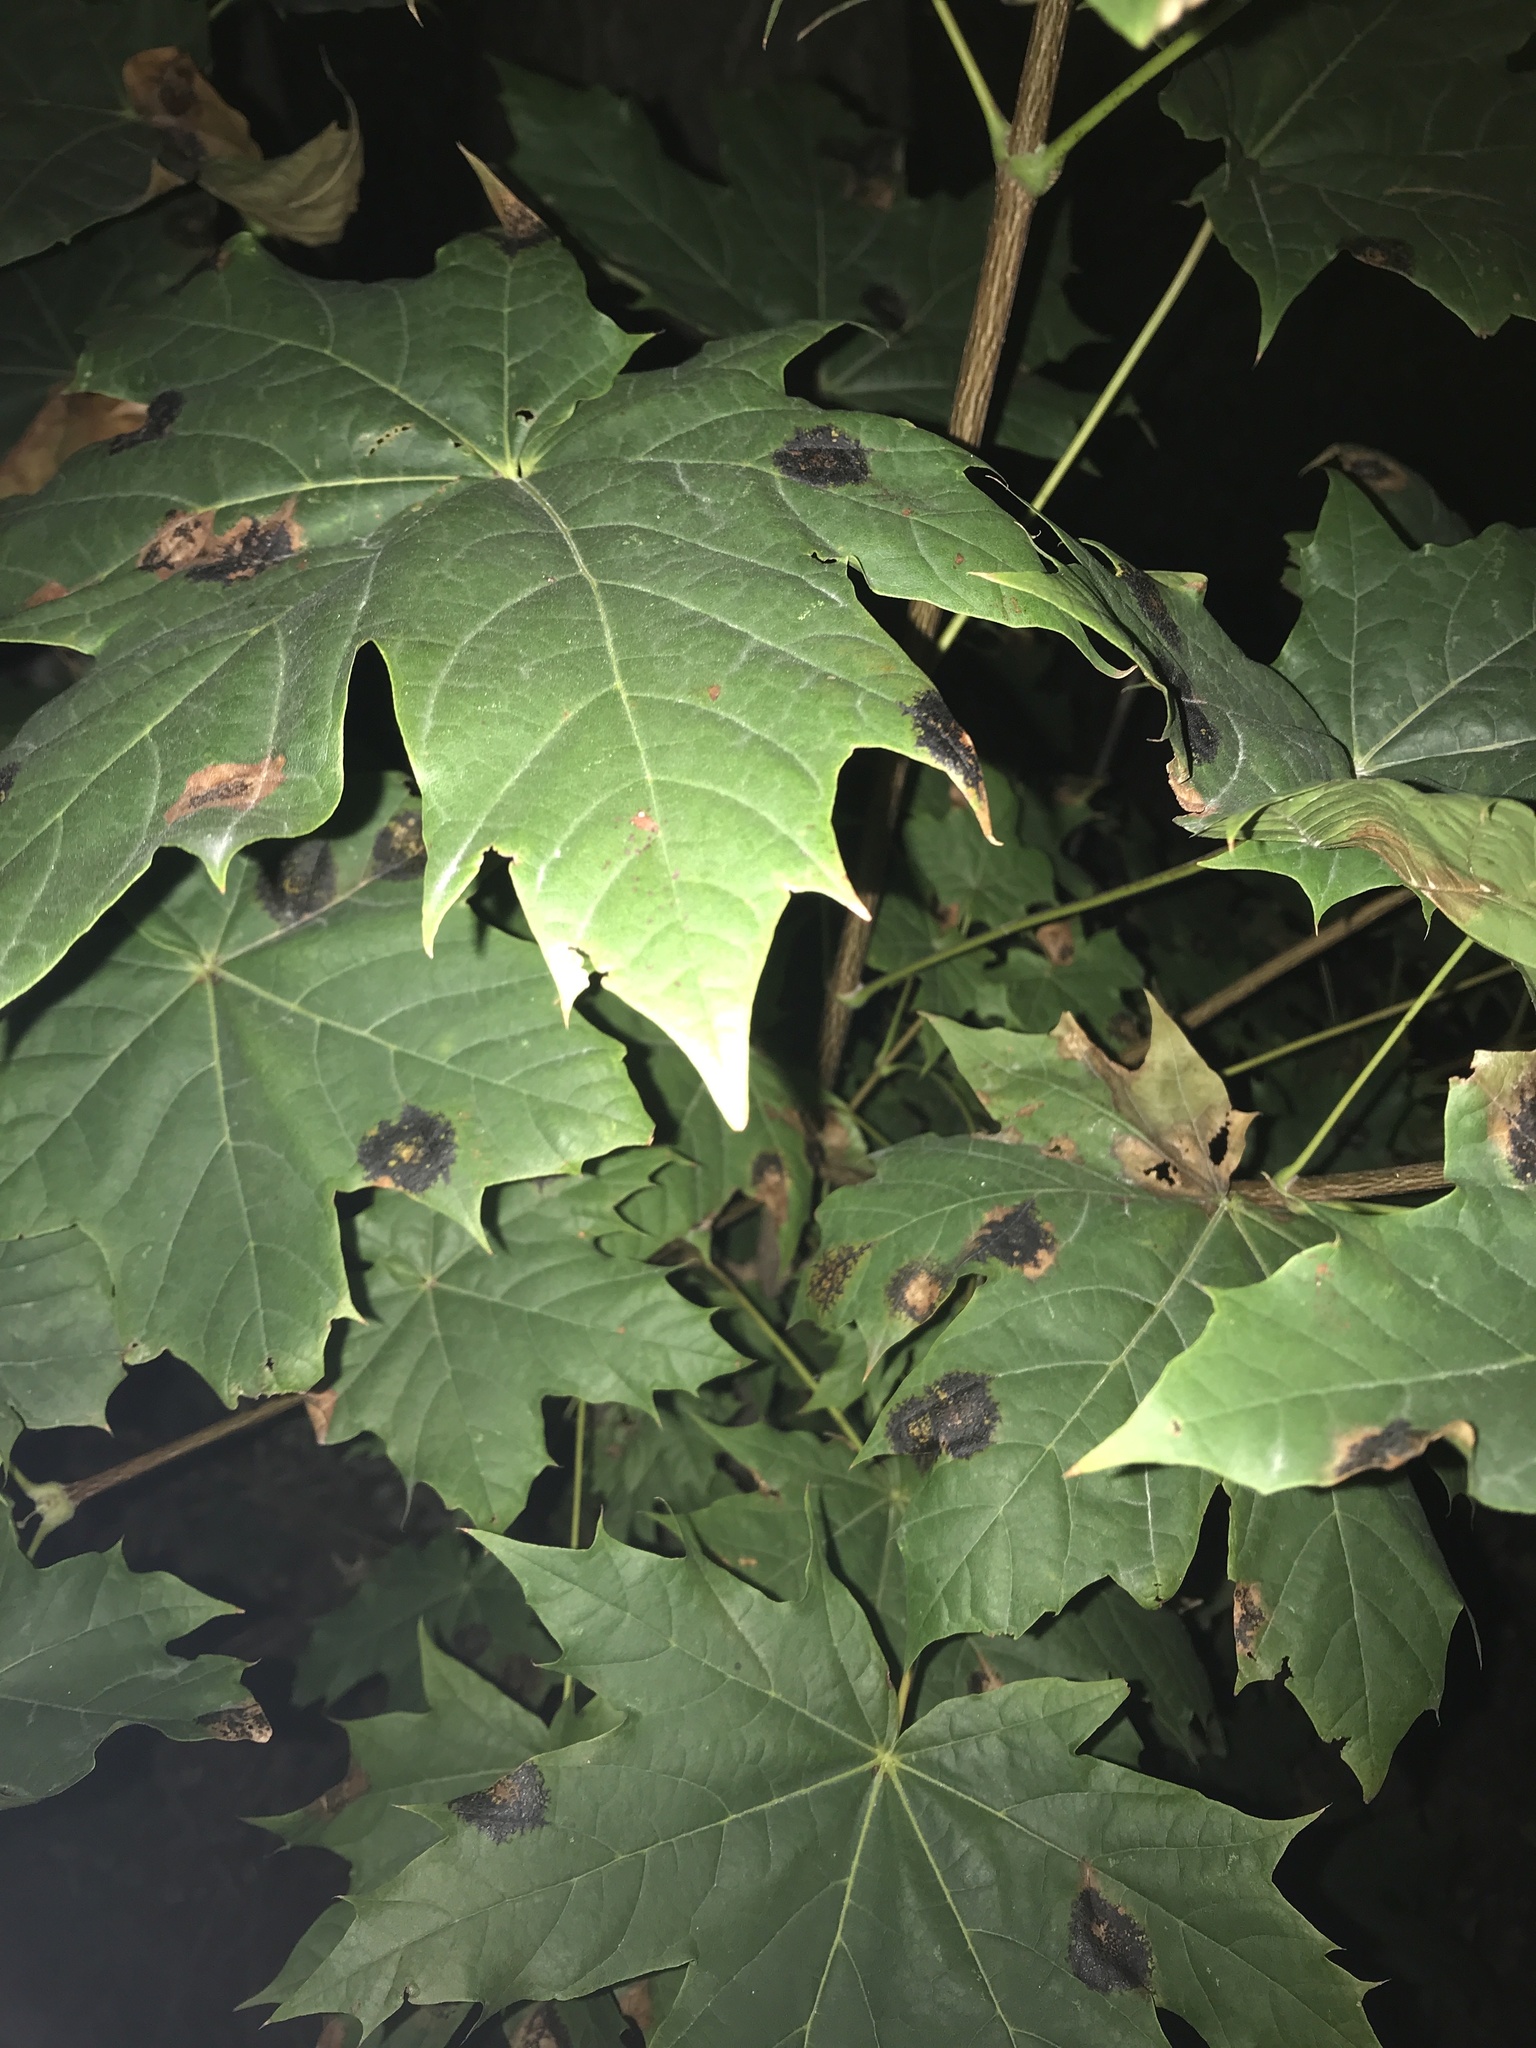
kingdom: Fungi
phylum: Ascomycota
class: Leotiomycetes
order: Rhytismatales
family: Rhytismataceae
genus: Rhytisma
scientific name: Rhytisma acerinum
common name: European tar spot
